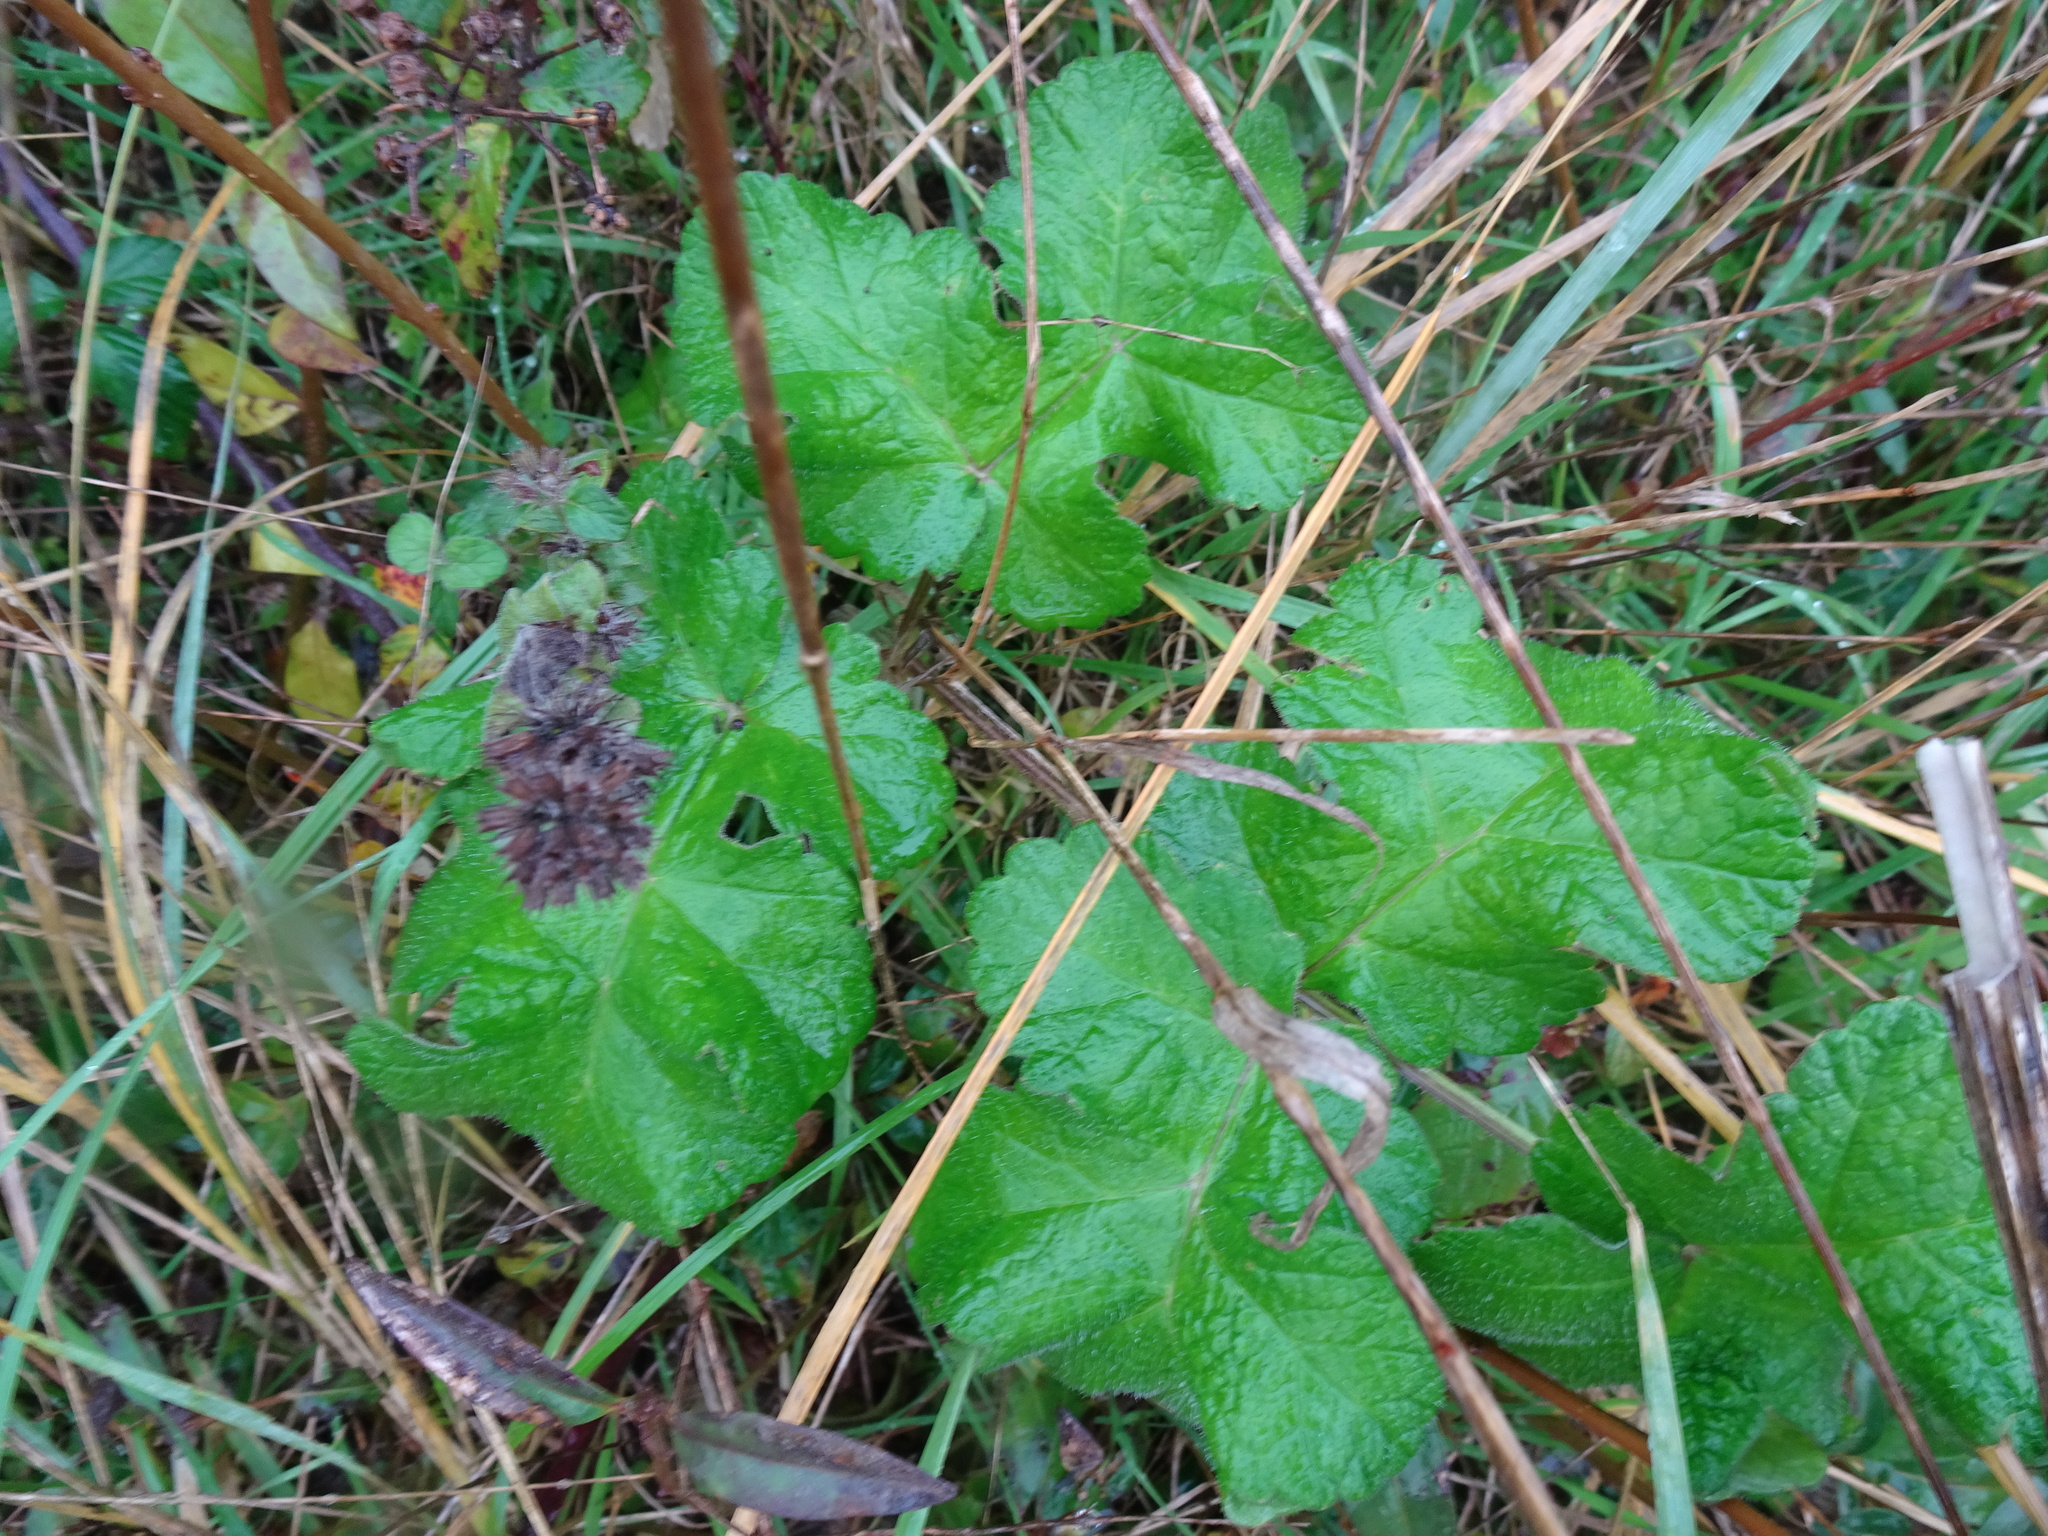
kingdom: Plantae
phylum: Tracheophyta
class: Magnoliopsida
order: Apiales
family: Apiaceae
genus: Heracleum
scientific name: Heracleum sphondylium
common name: Hogweed
